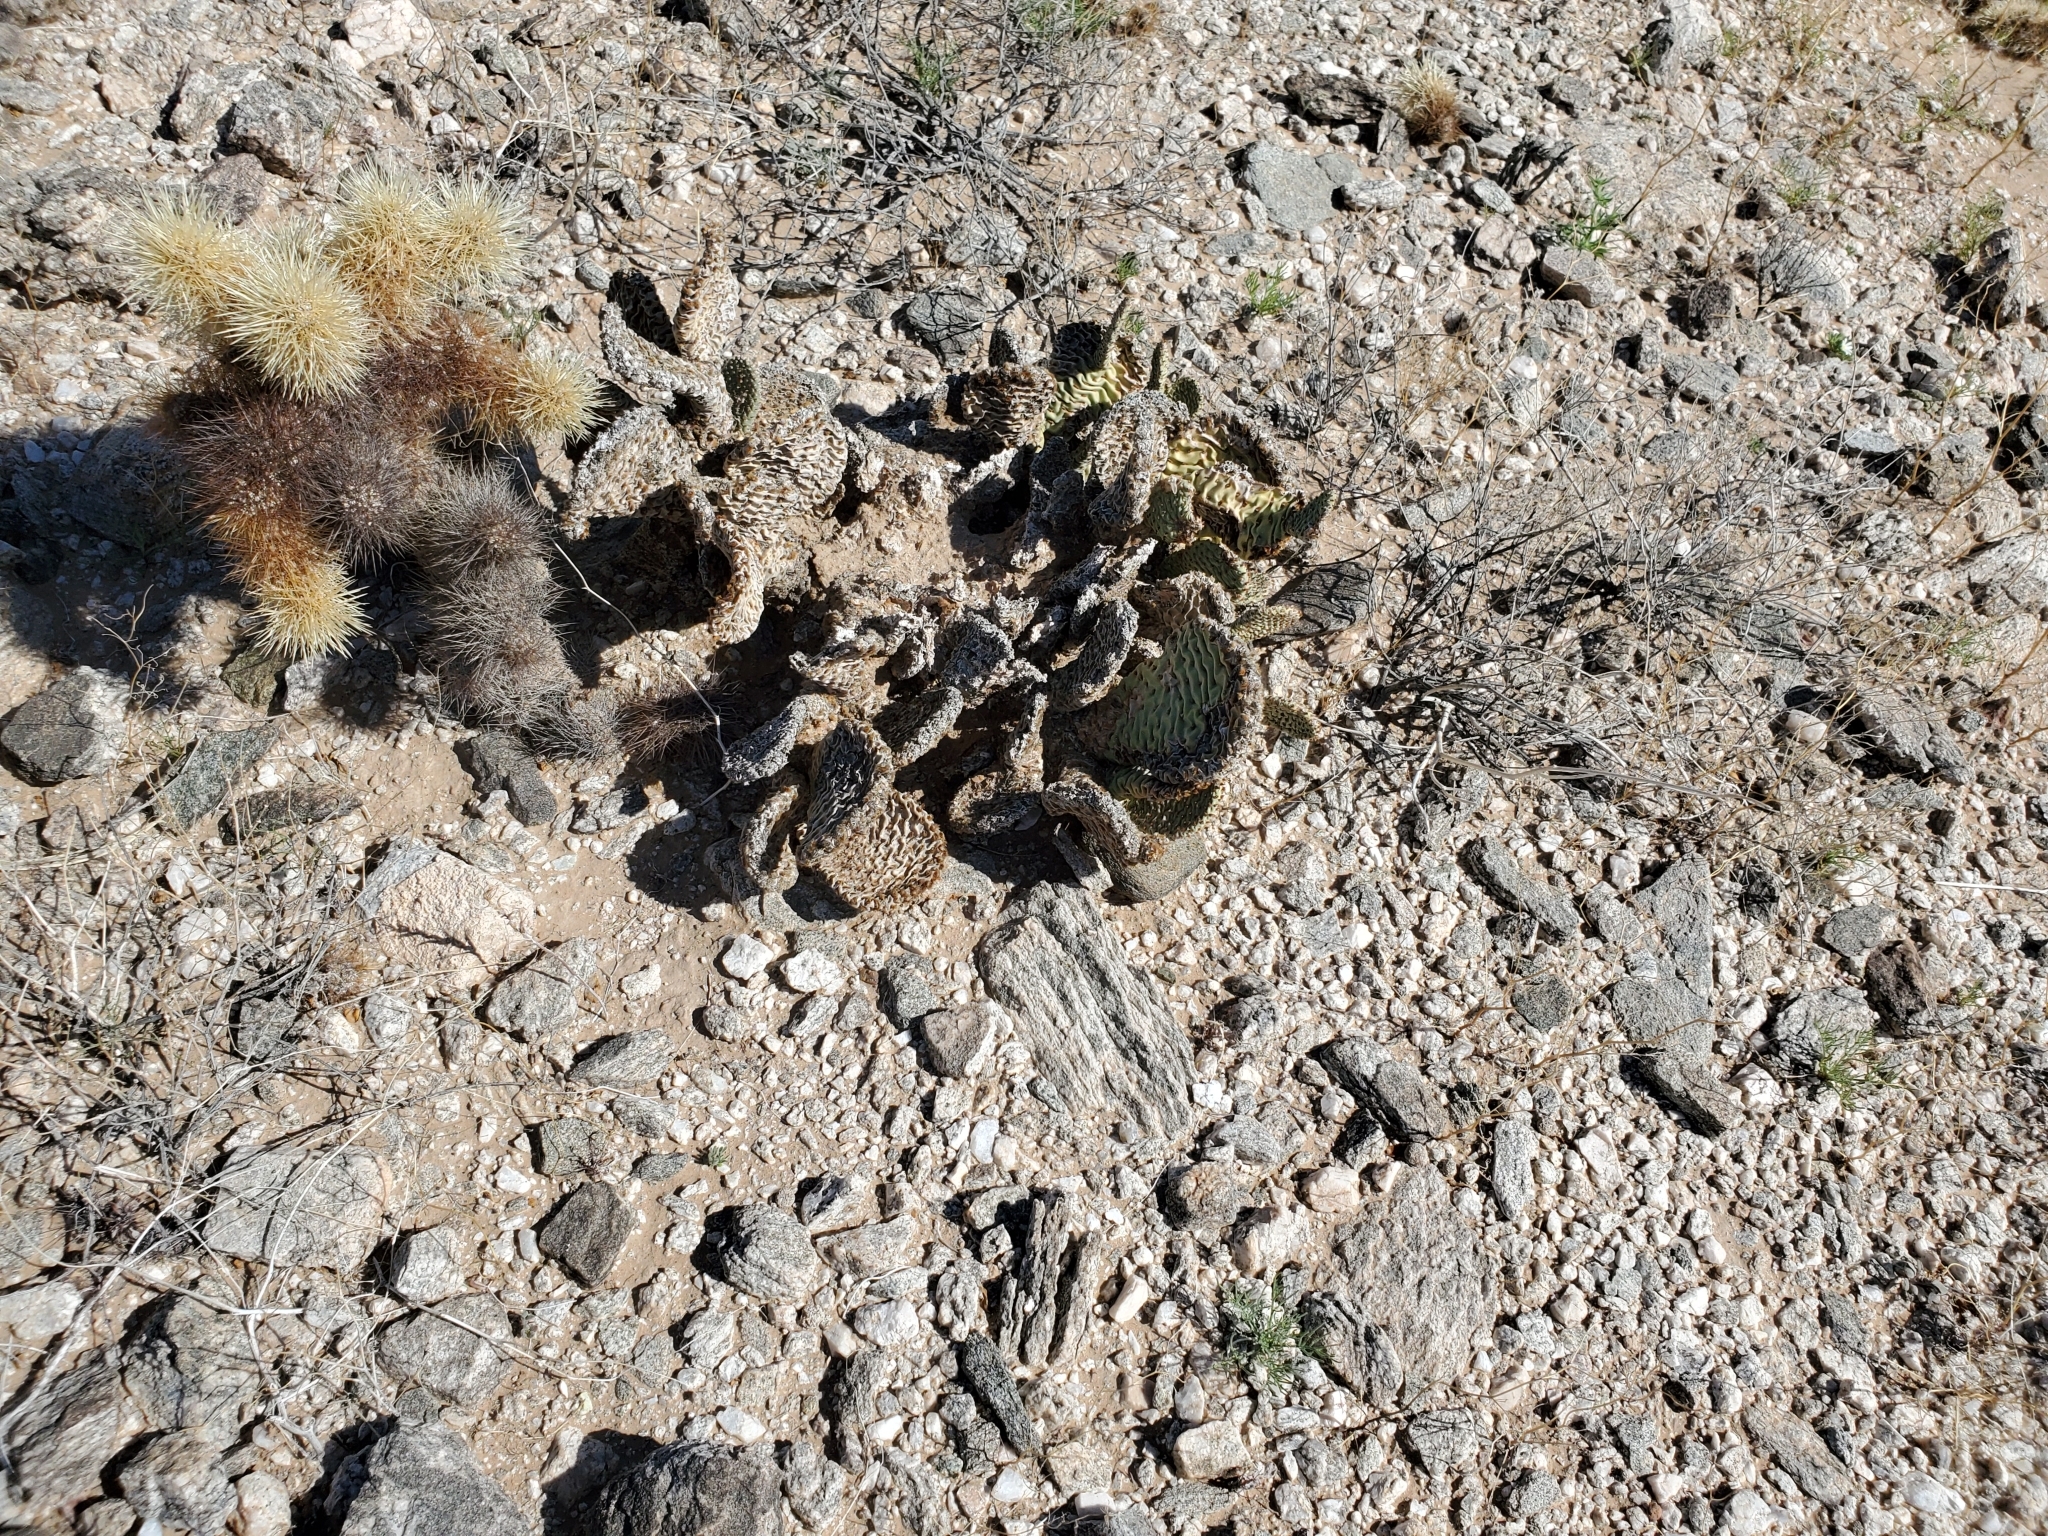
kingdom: Plantae
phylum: Tracheophyta
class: Magnoliopsida
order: Caryophyllales
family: Cactaceae
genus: Opuntia
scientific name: Opuntia basilaris
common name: Beavertail prickly-pear
